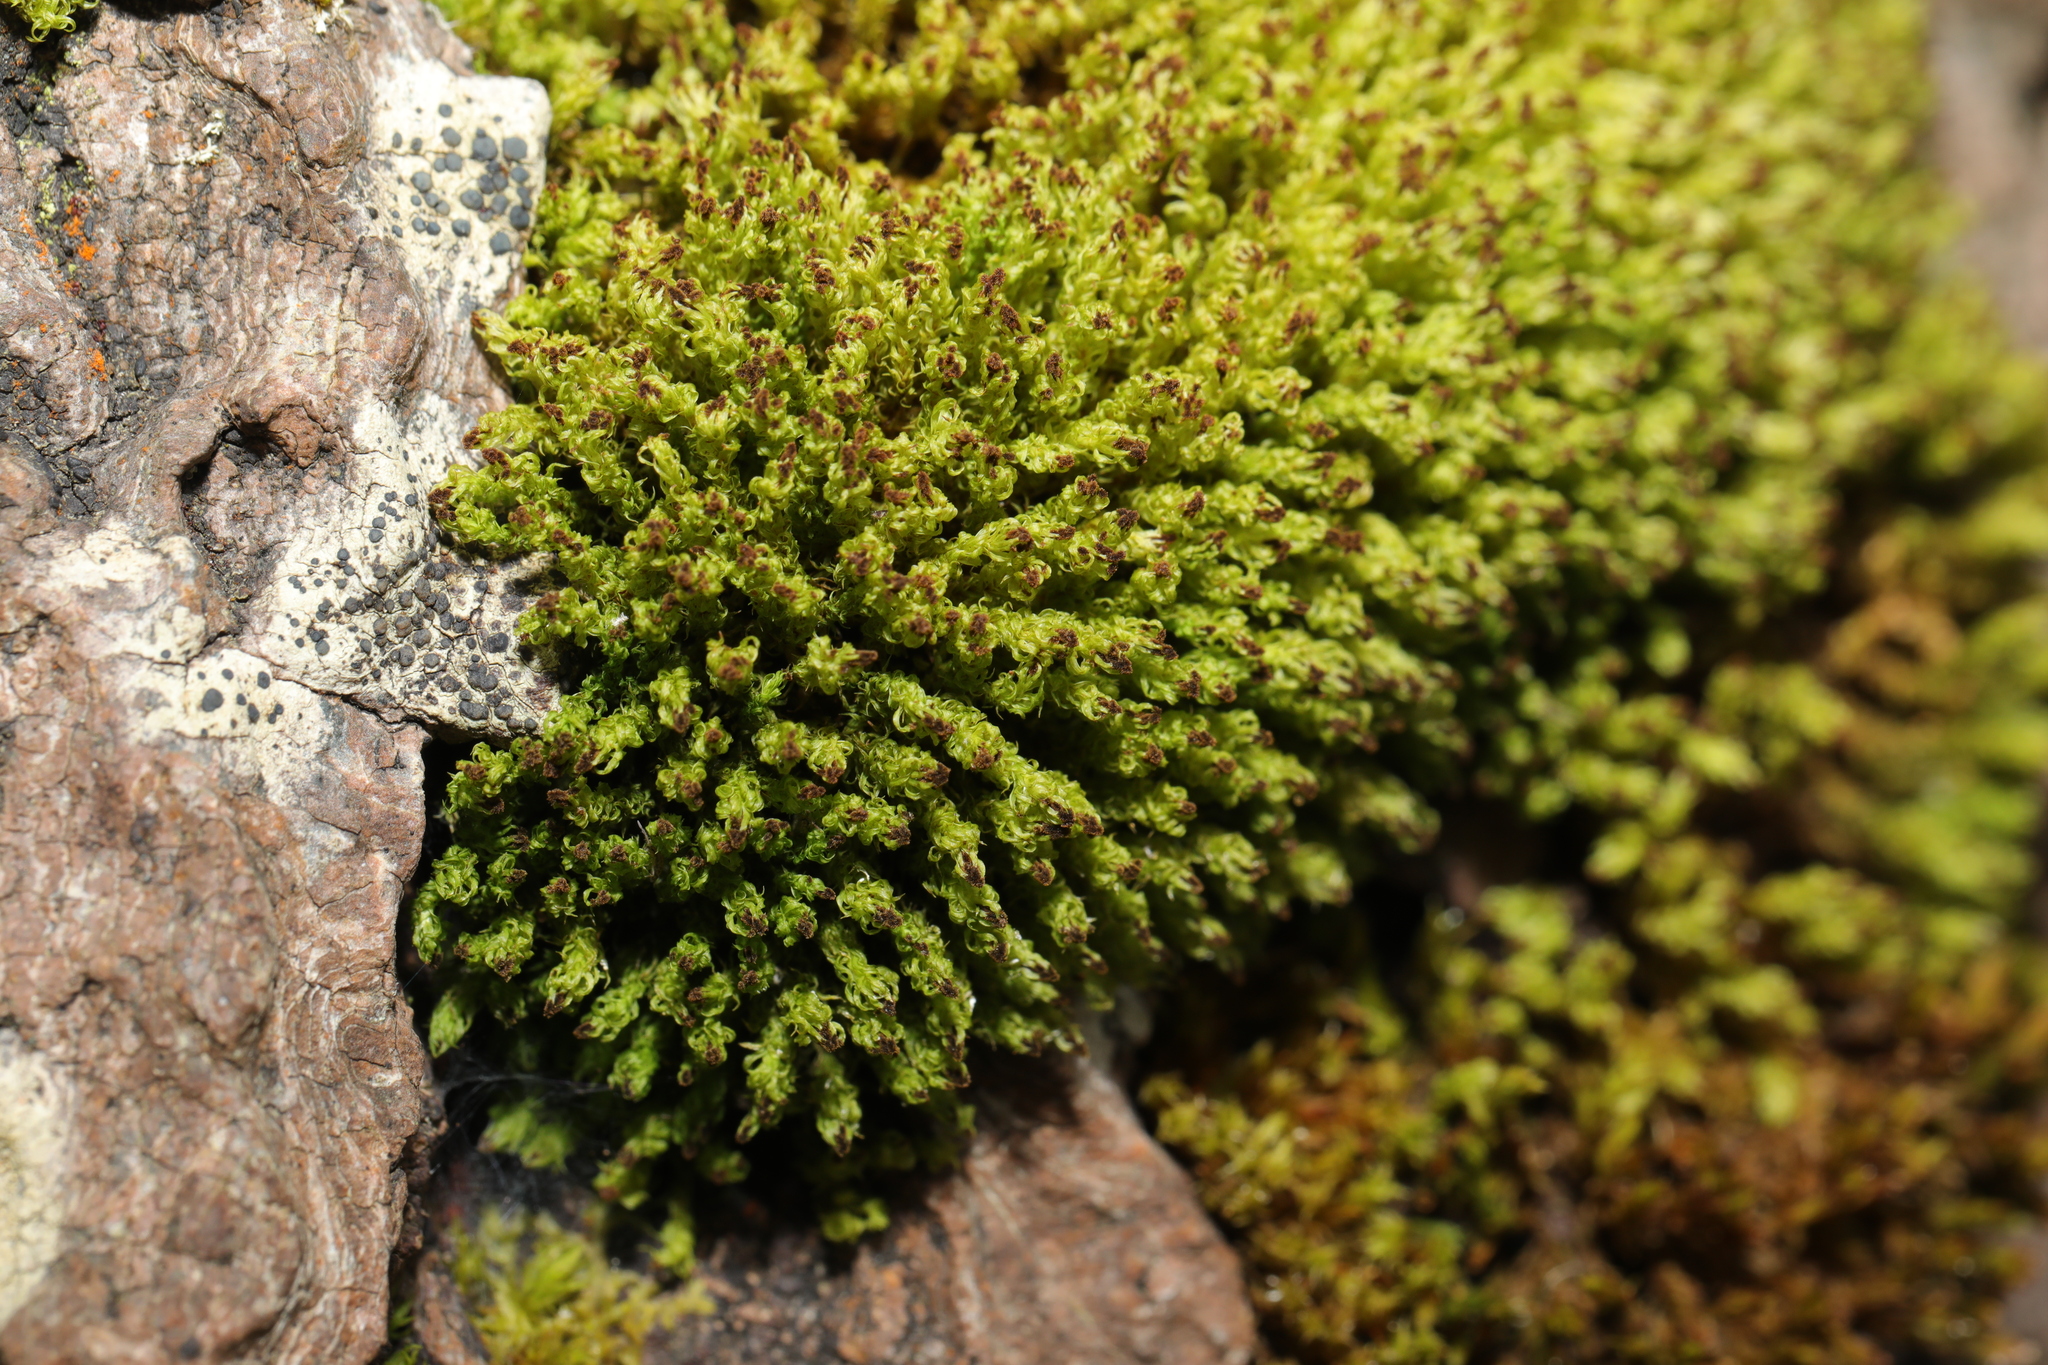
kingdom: Plantae
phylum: Bryophyta
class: Bryopsida
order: Orthotrichales
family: Orthotrichaceae
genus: Plenogemma
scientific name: Plenogemma phyllantha
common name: Frizzled pincushion
